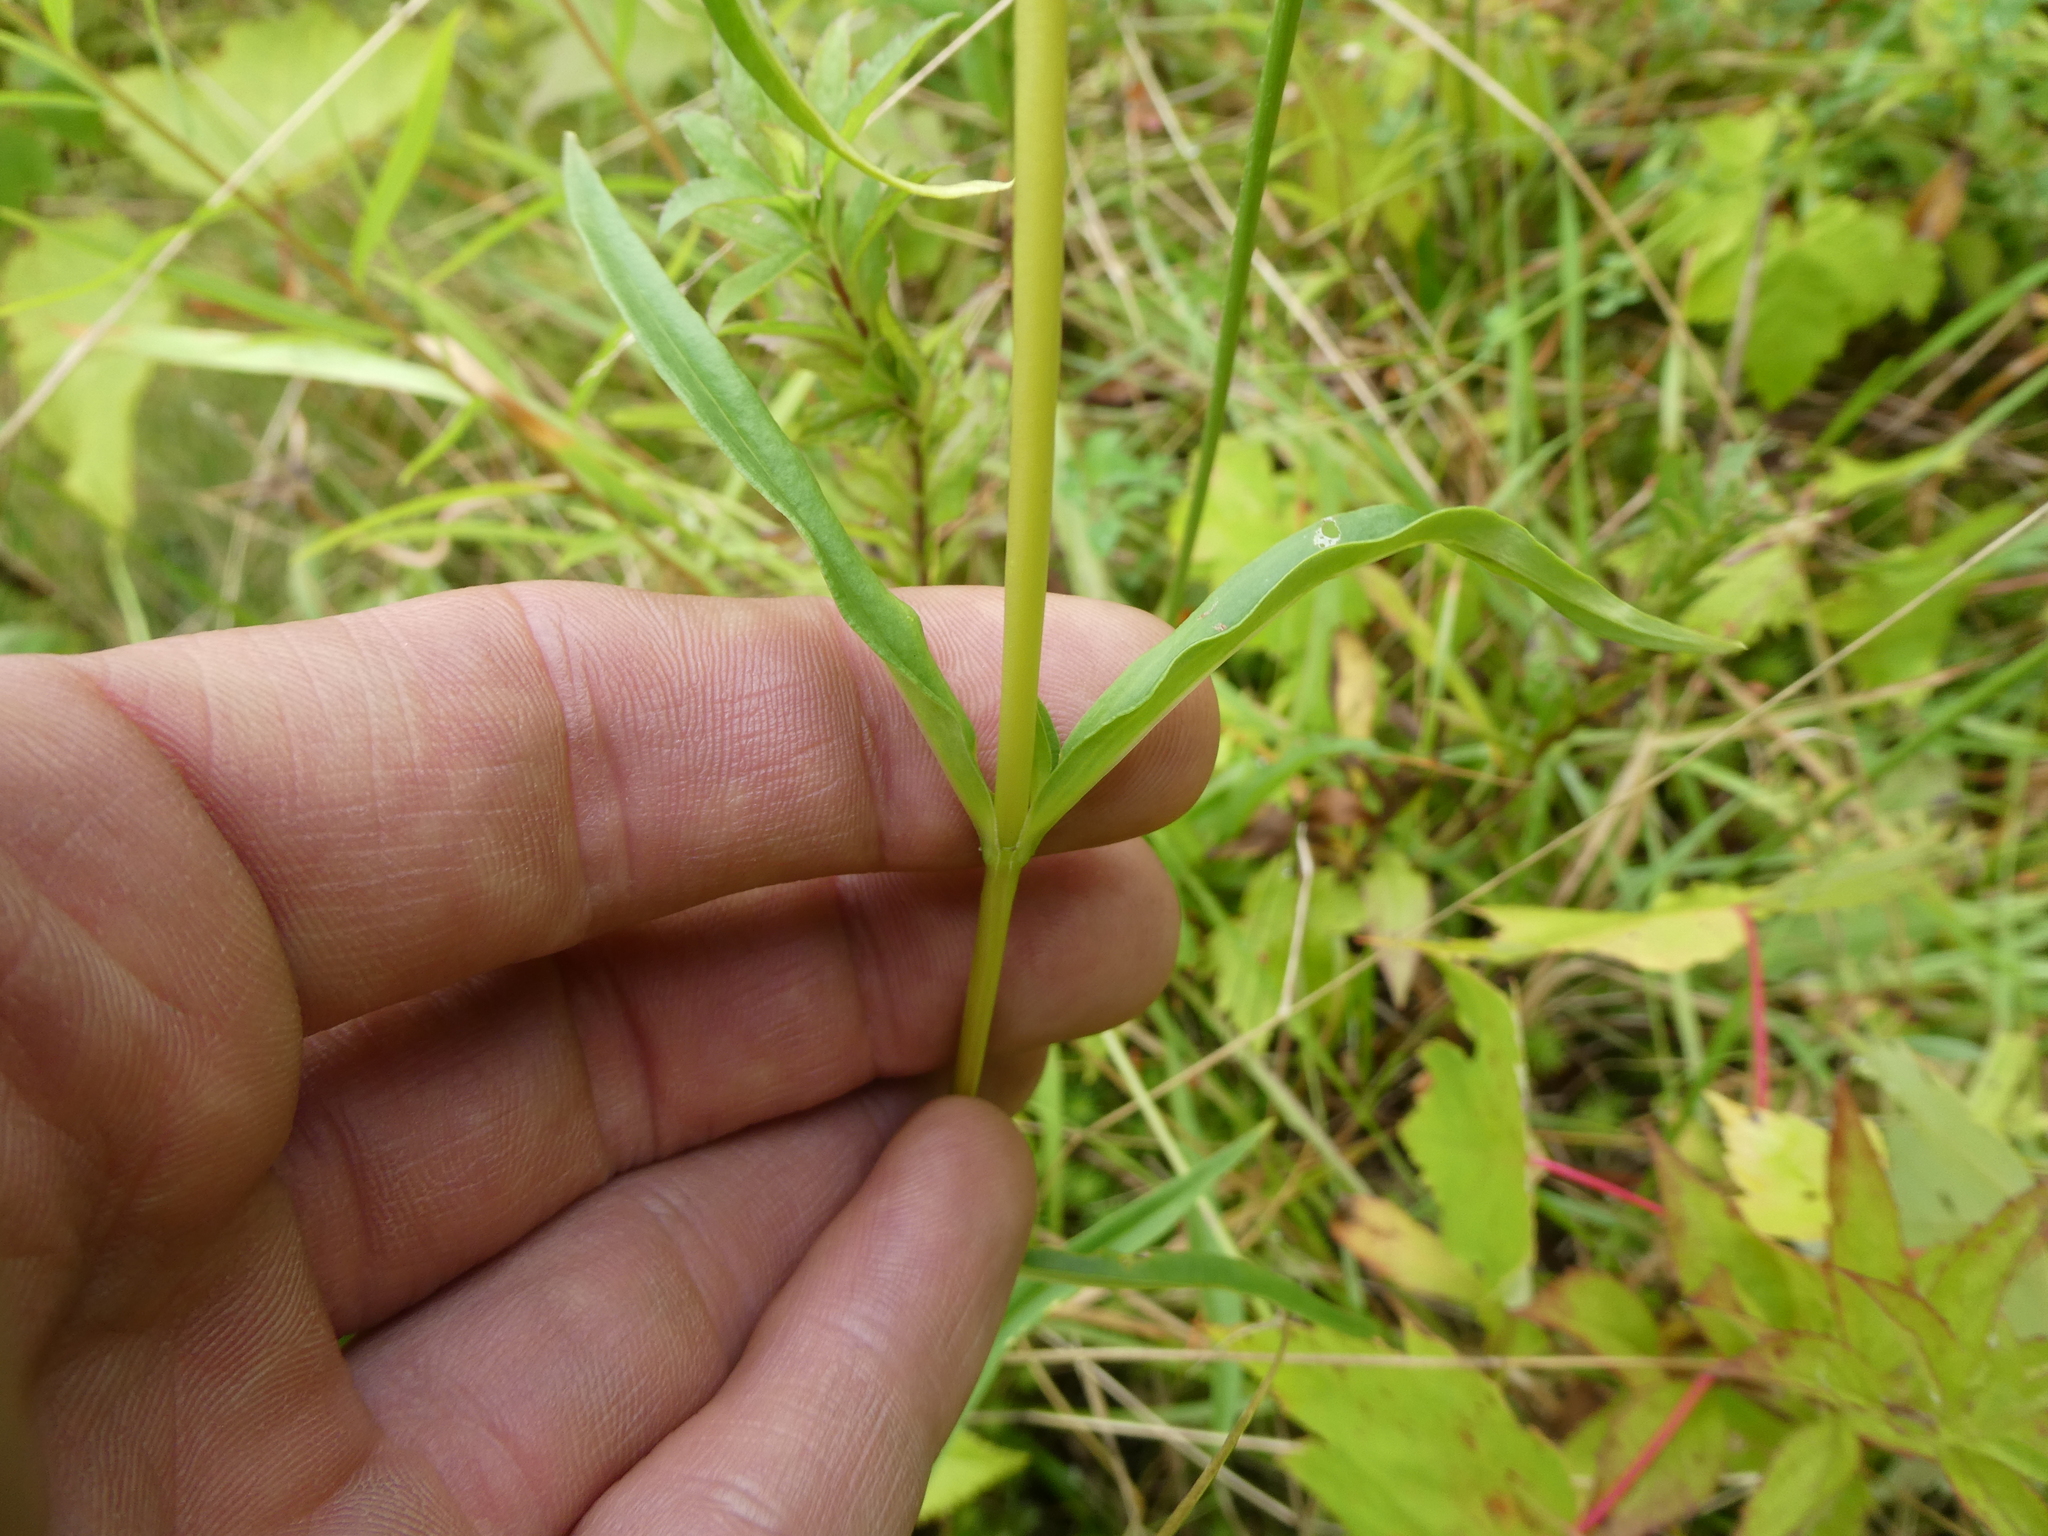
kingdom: Plantae
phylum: Tracheophyta
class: Magnoliopsida
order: Gentianales
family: Gentianaceae
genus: Gentiana
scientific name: Gentiana linearis
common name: Bastard gentian
